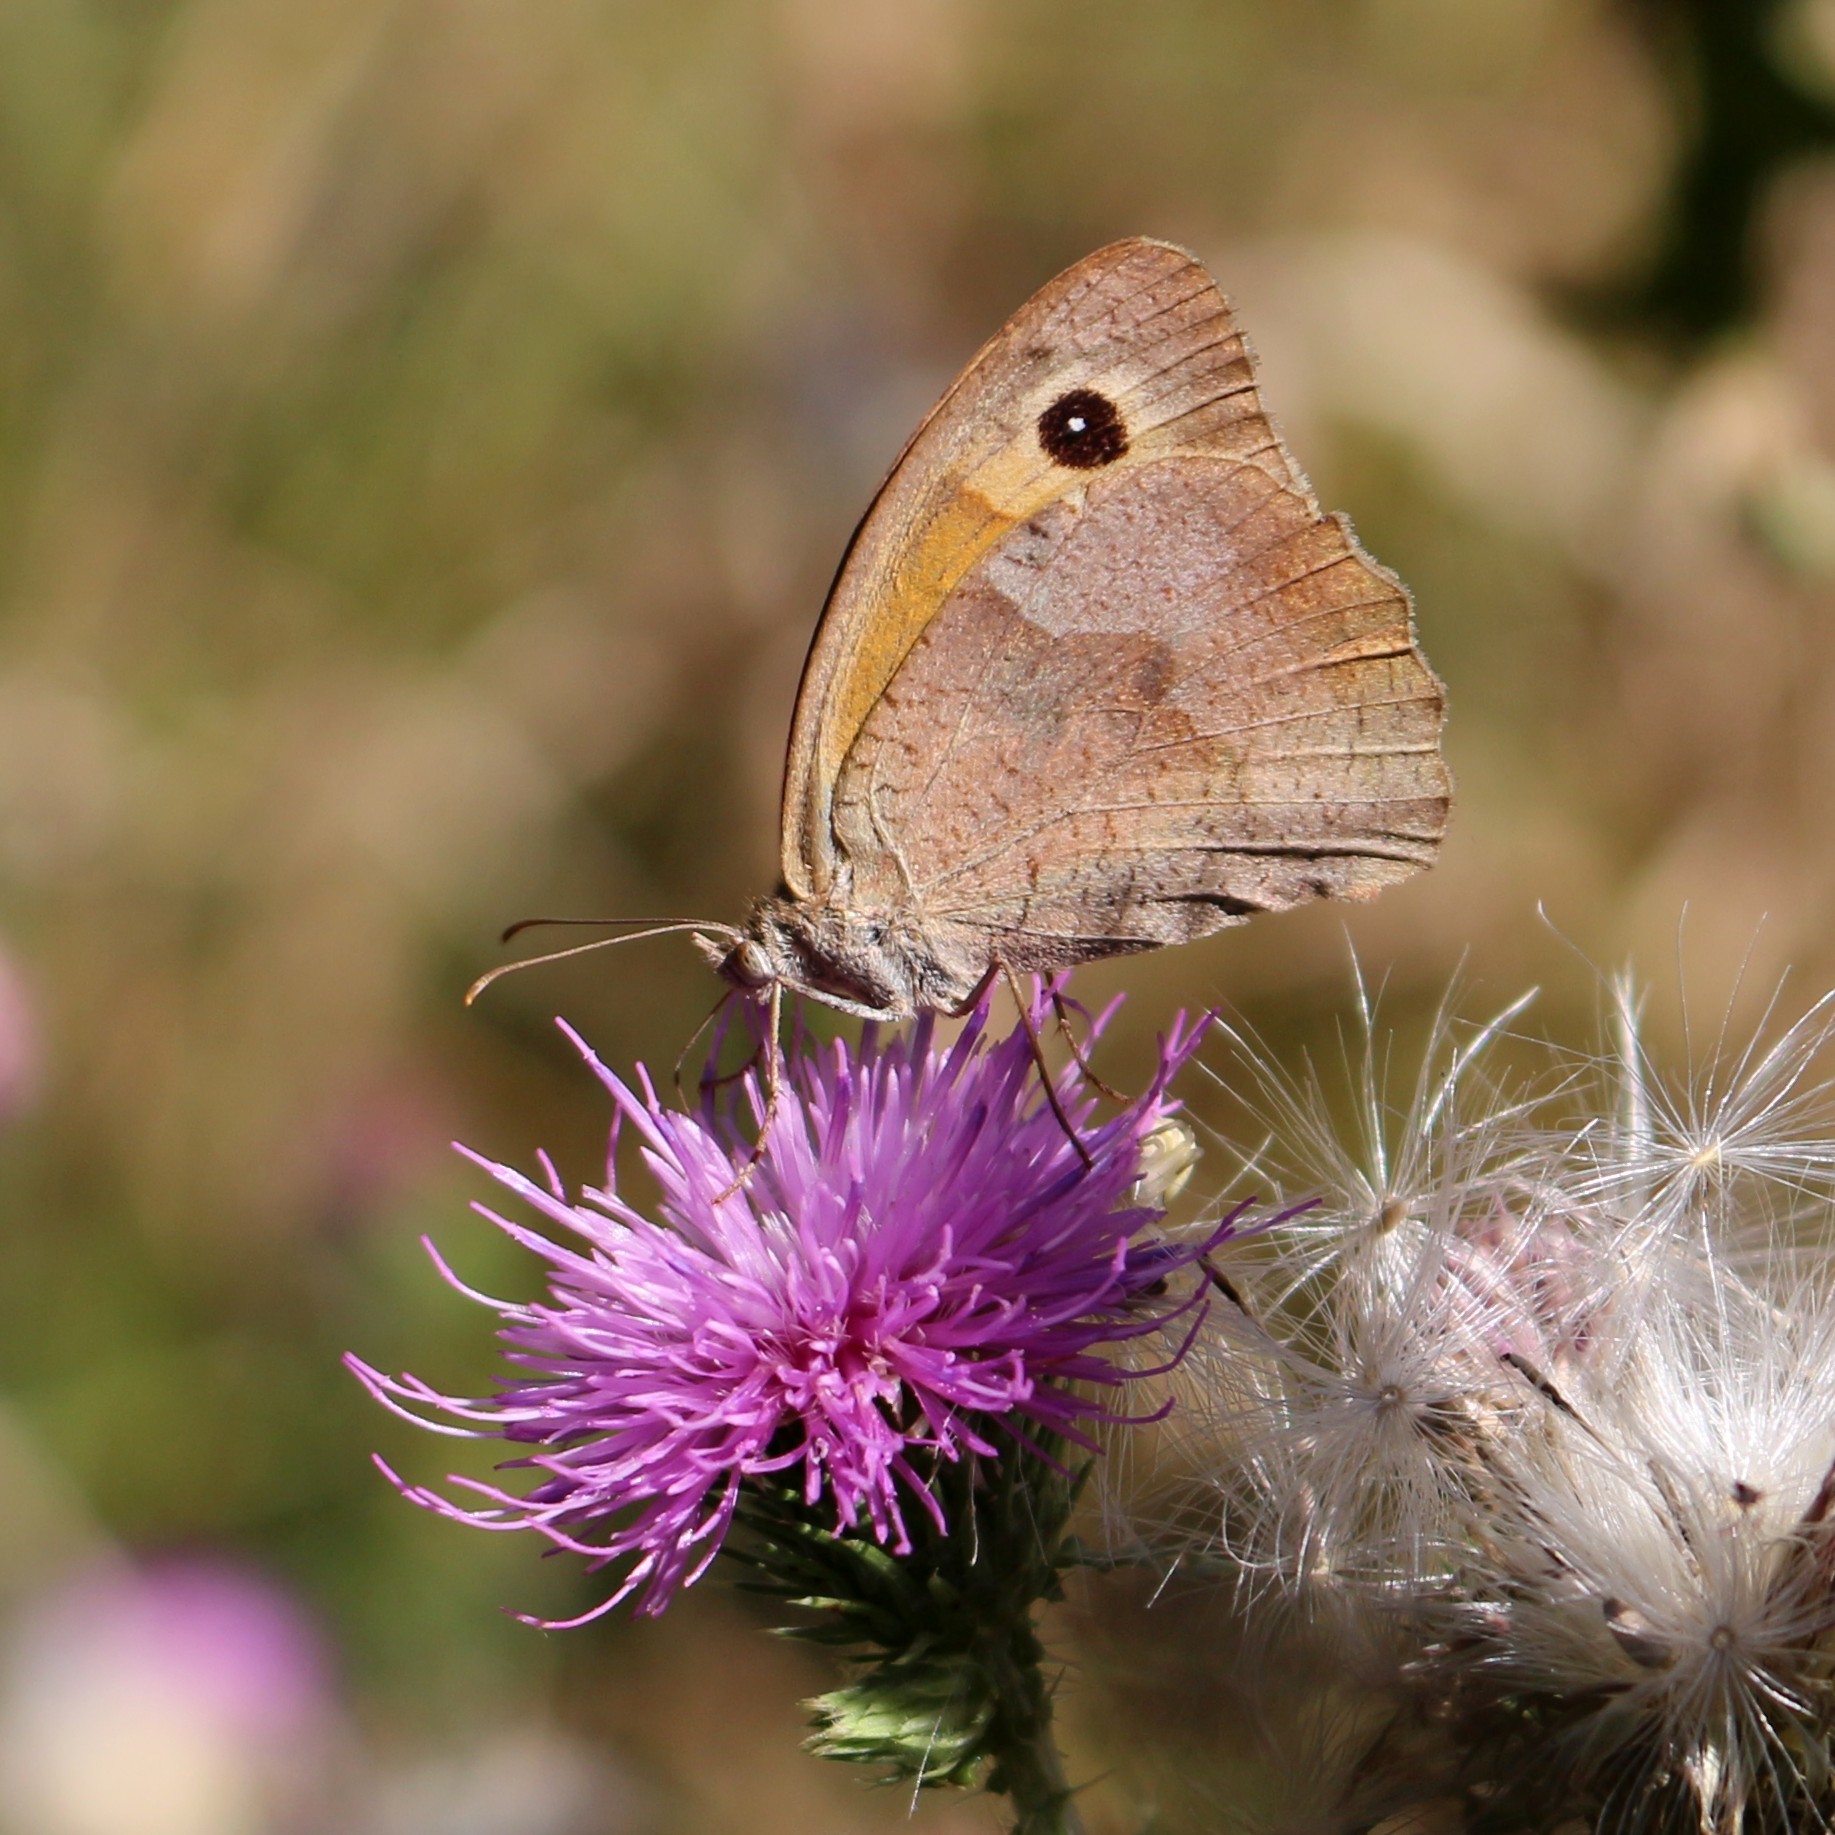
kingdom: Animalia
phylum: Arthropoda
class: Insecta
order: Lepidoptera
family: Nymphalidae
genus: Maniola
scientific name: Maniola jurtina
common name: Meadow brown
